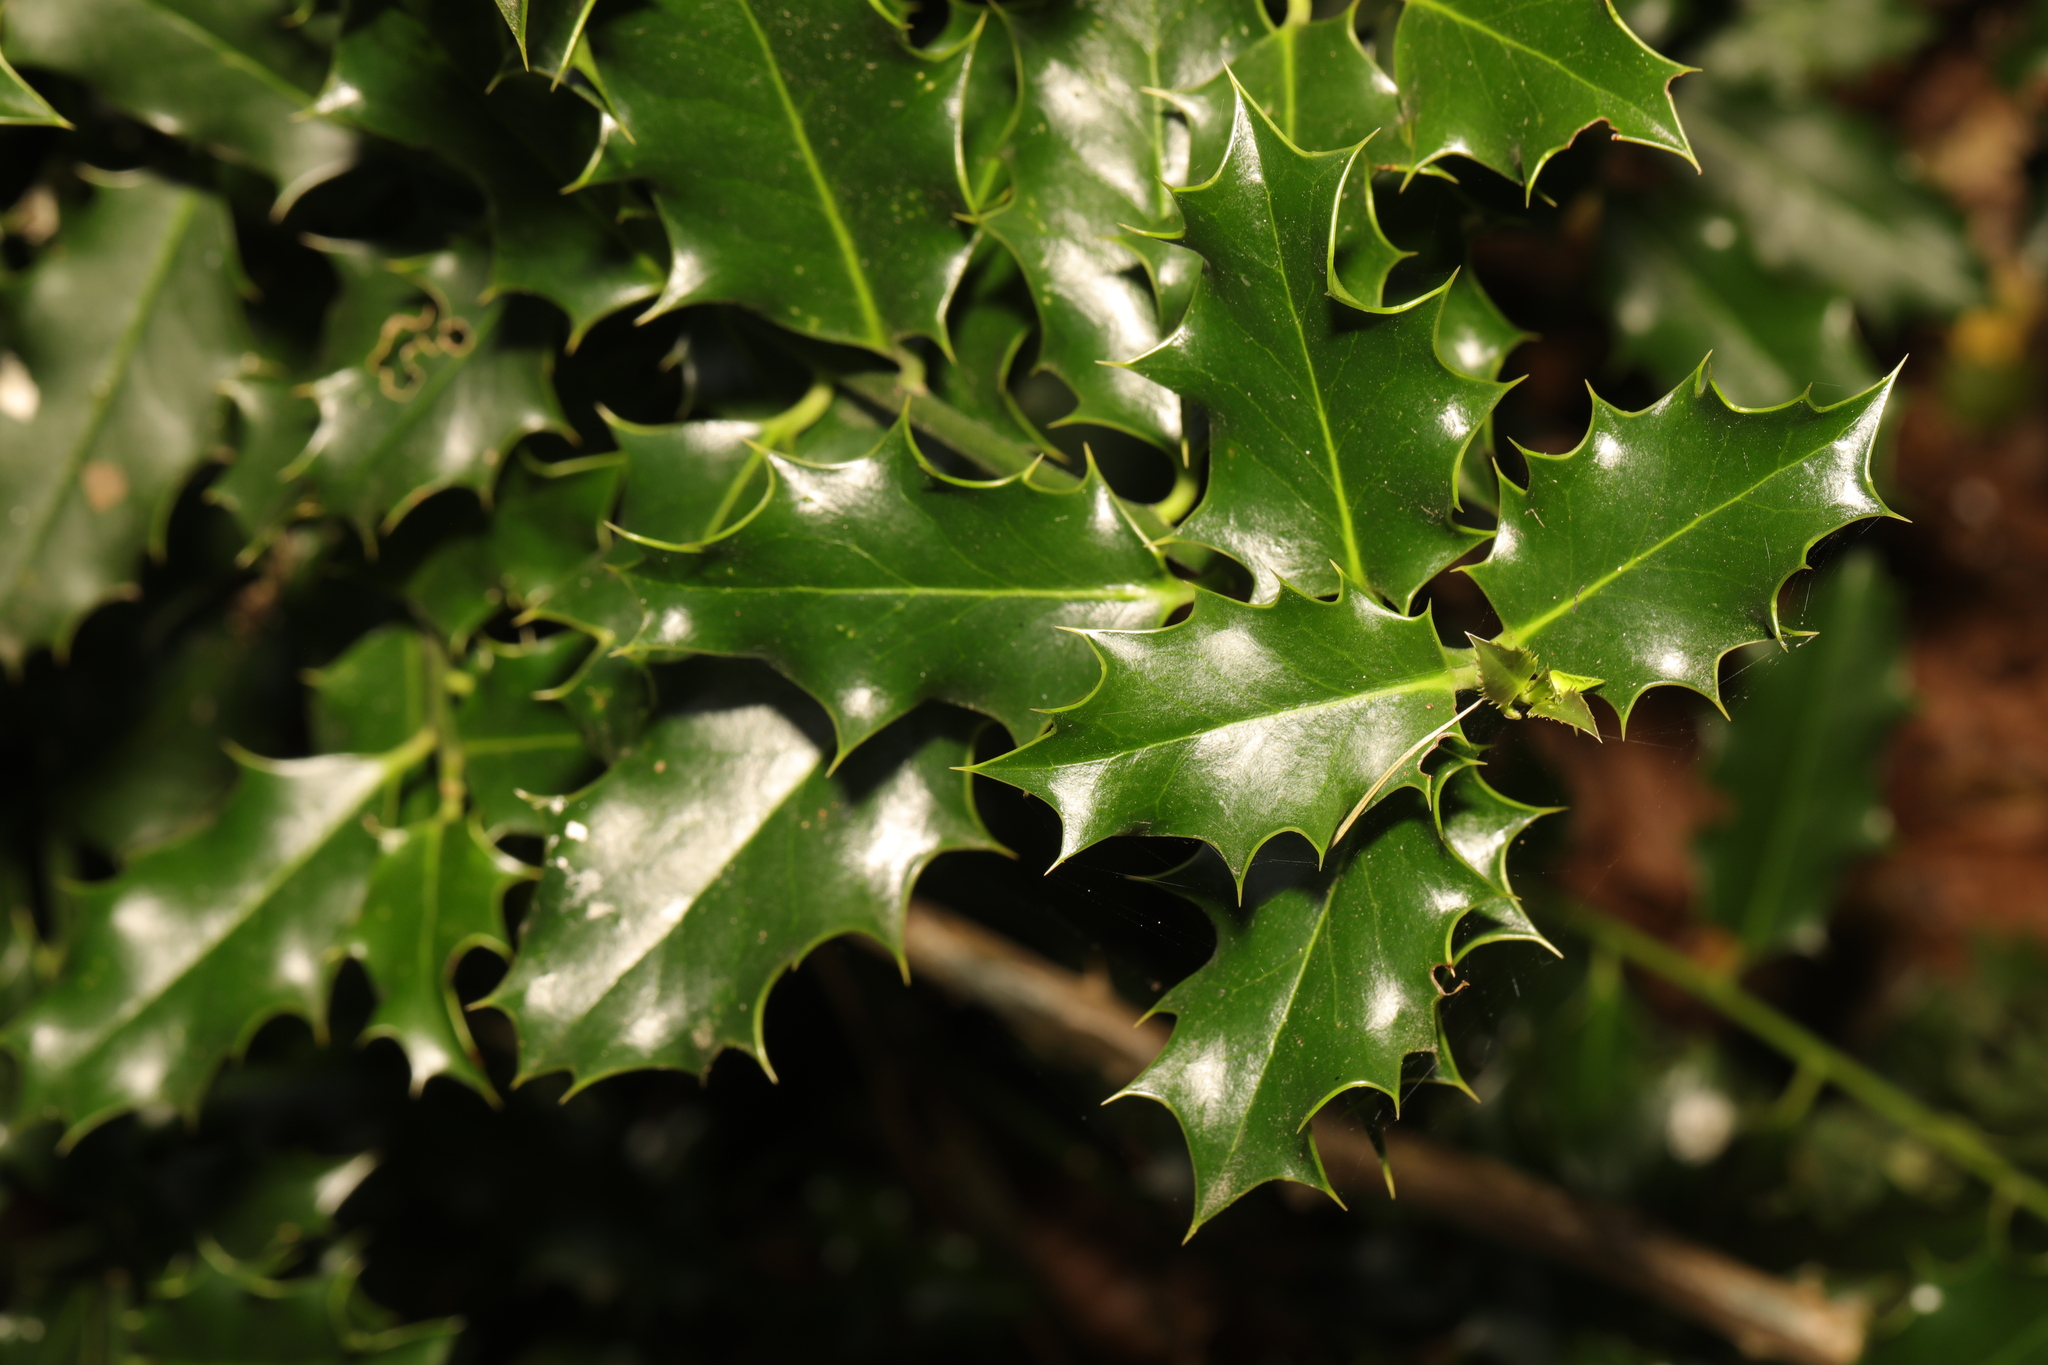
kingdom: Plantae
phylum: Tracheophyta
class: Magnoliopsida
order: Aquifoliales
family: Aquifoliaceae
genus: Ilex
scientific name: Ilex aquifolium
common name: English holly
